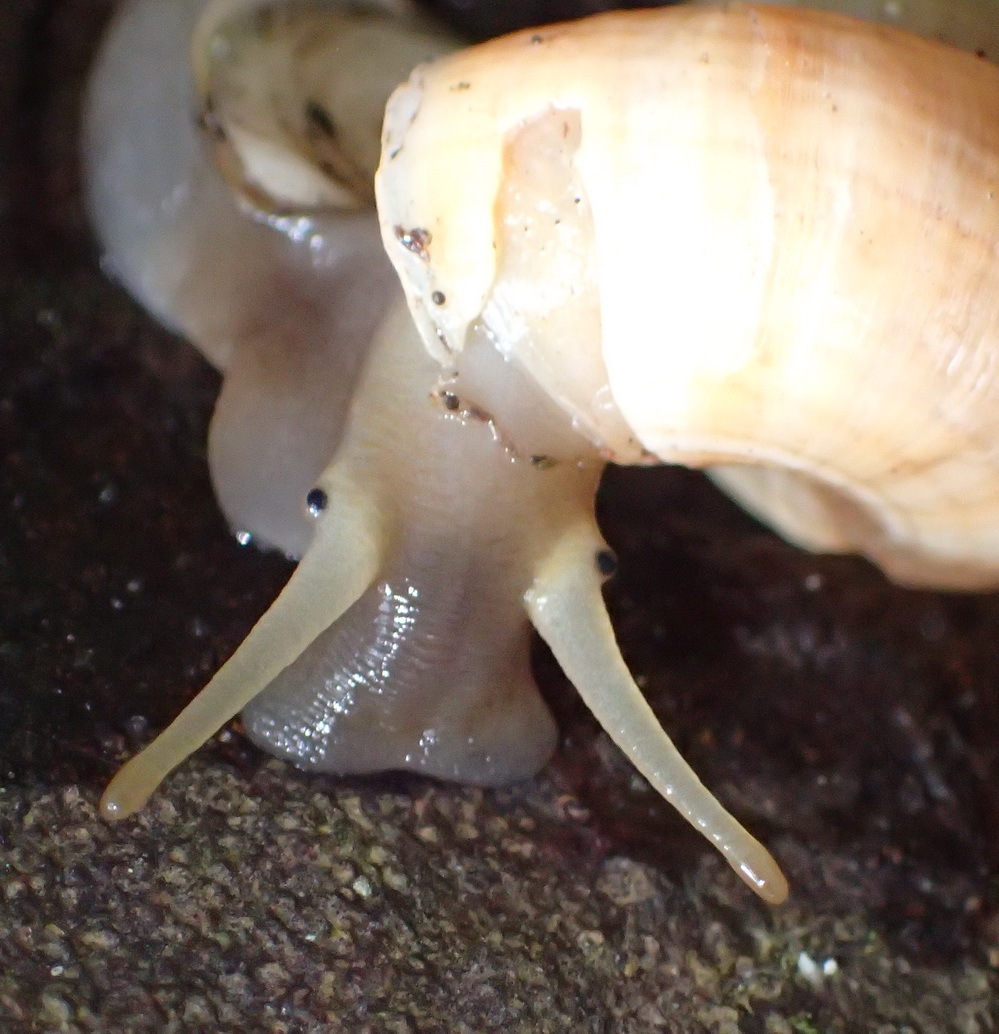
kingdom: Animalia
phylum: Mollusca
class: Gastropoda
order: Littorinimorpha
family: Pomatiidae
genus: Tropidophora
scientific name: Tropidophora ligata
